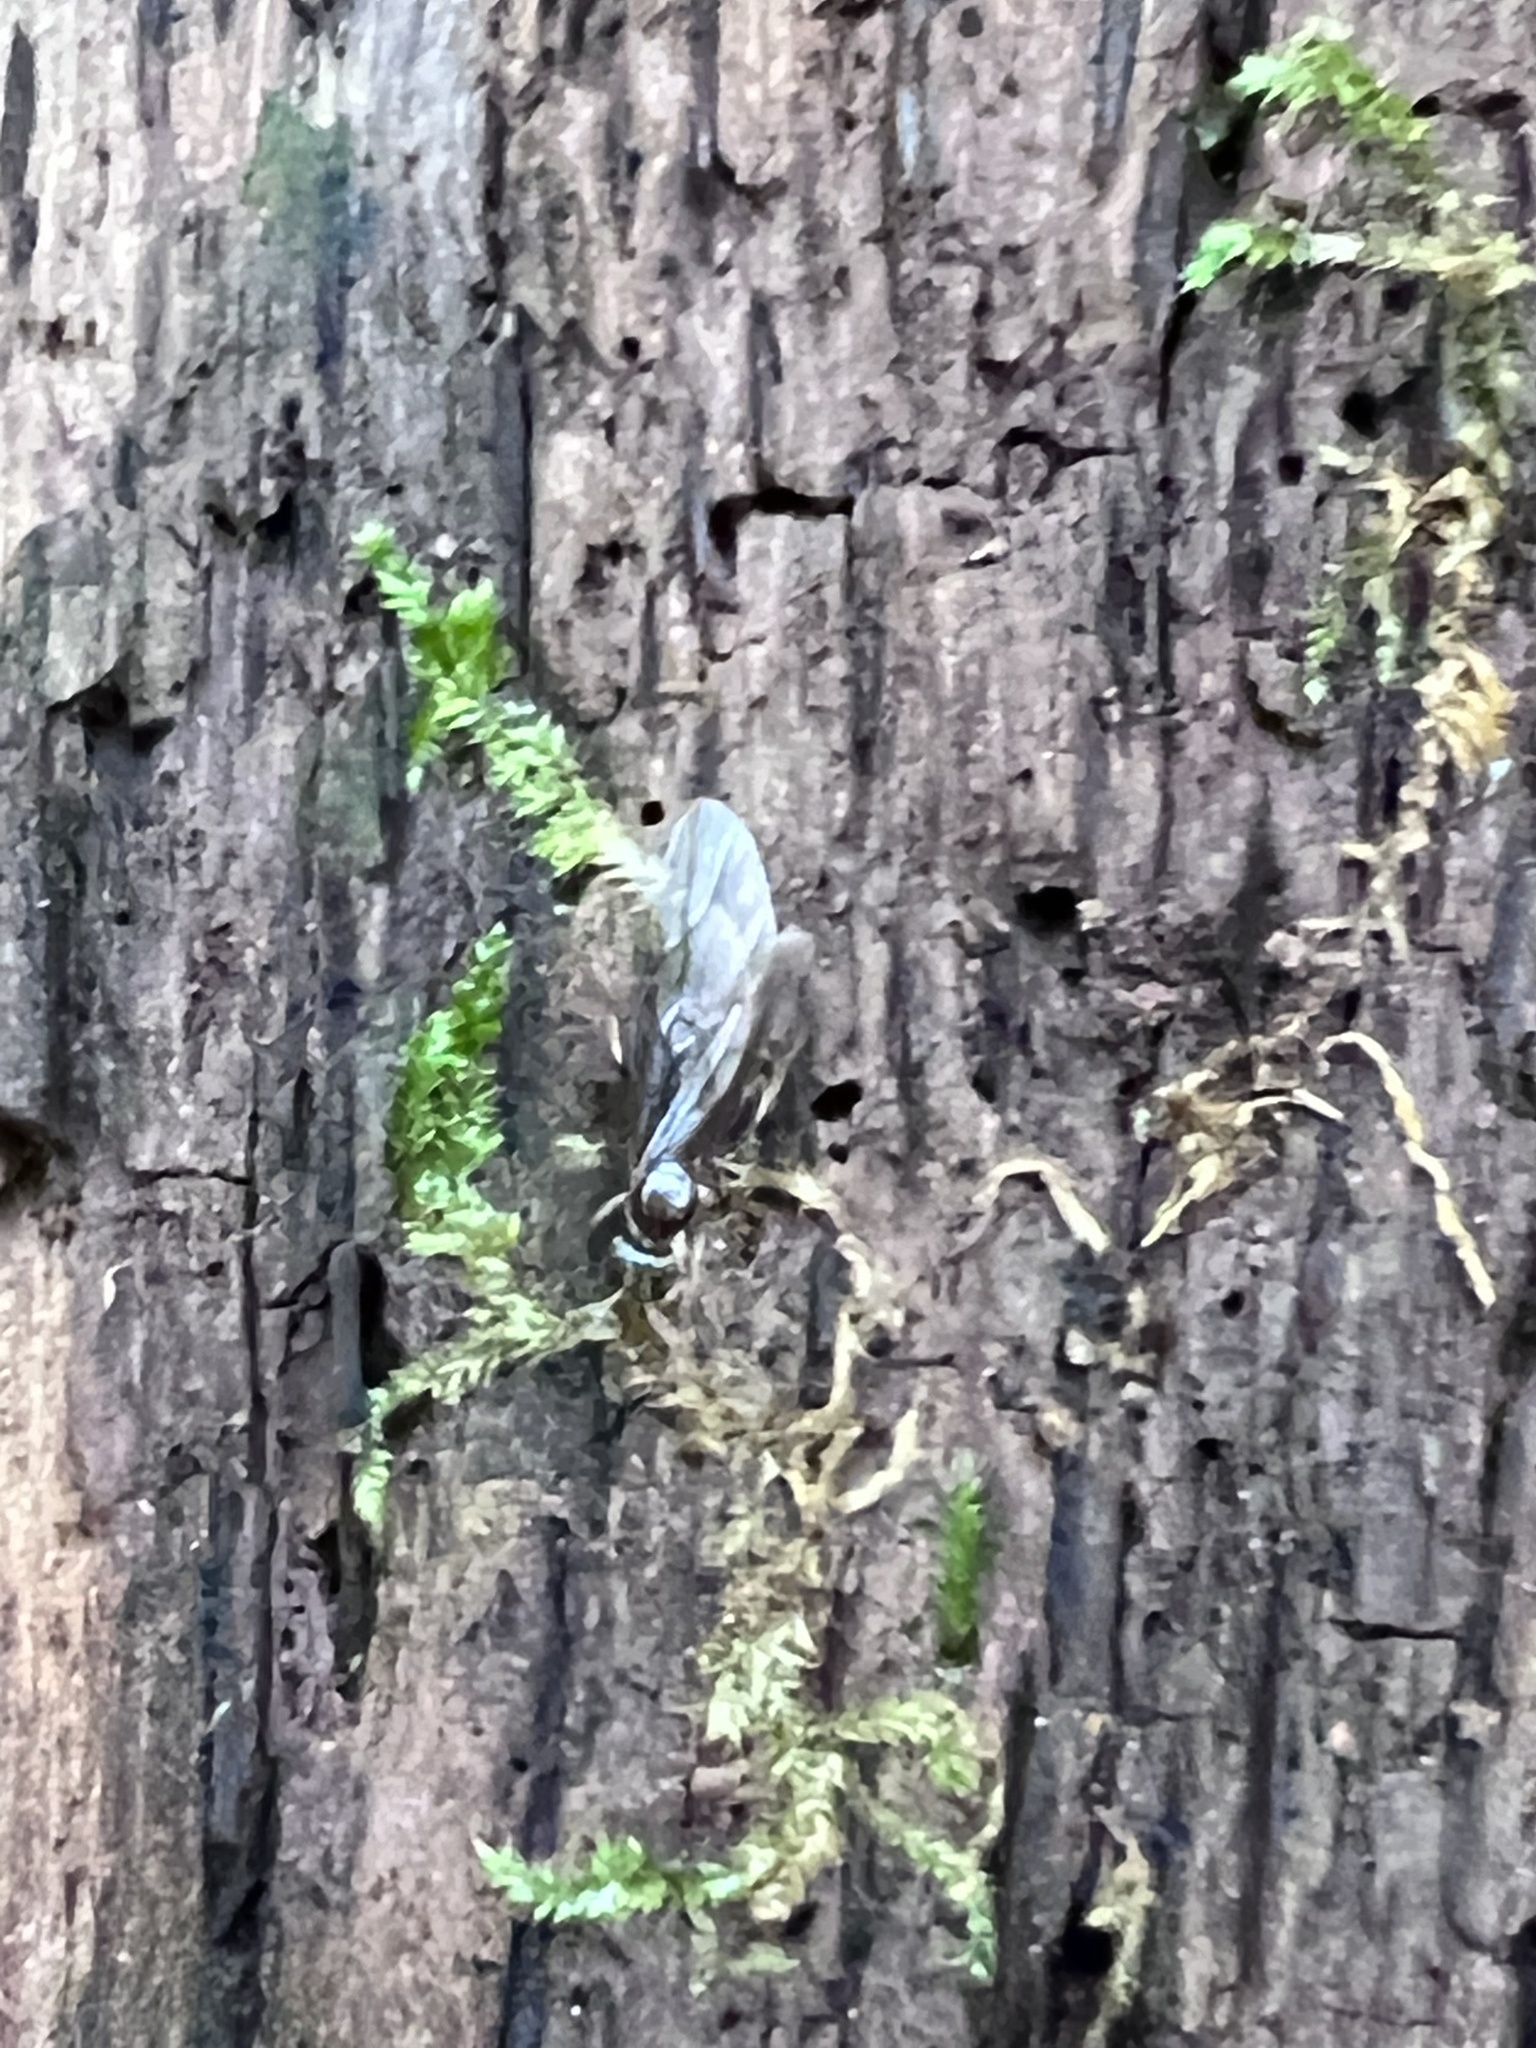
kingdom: Animalia
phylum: Arthropoda
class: Insecta
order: Hymenoptera
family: Formicidae
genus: Lasius
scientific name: Lasius aphidicola
